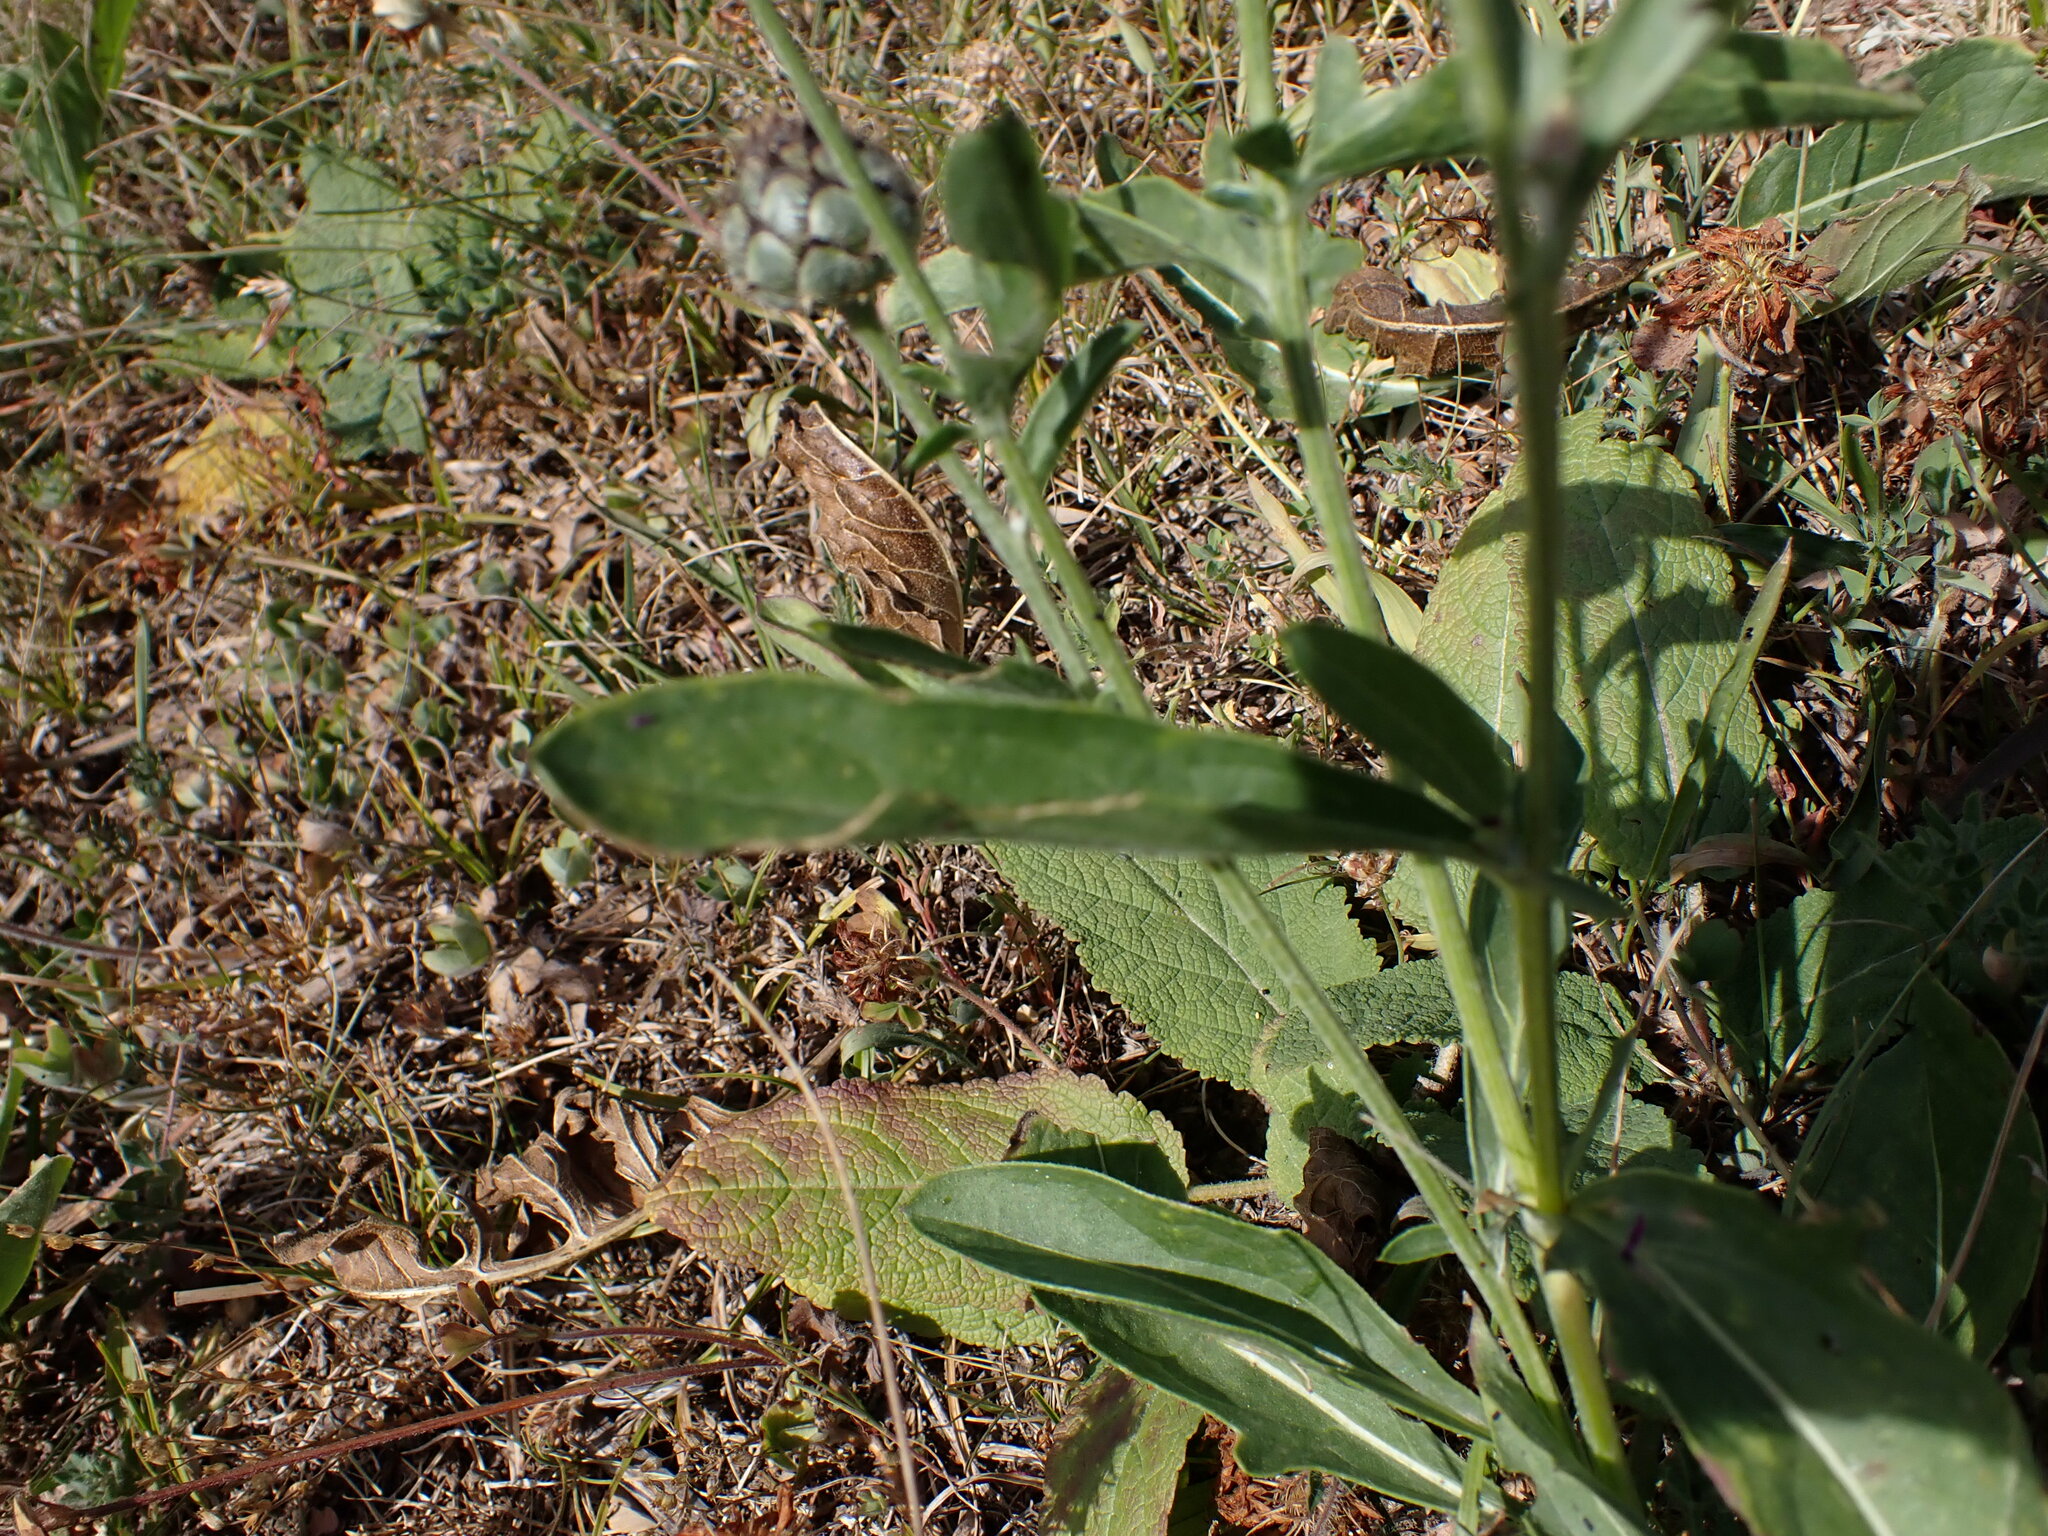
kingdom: Plantae
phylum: Tracheophyta
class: Magnoliopsida
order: Asterales
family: Asteraceae
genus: Centaurea
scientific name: Centaurea scabiosa
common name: Greater knapweed
